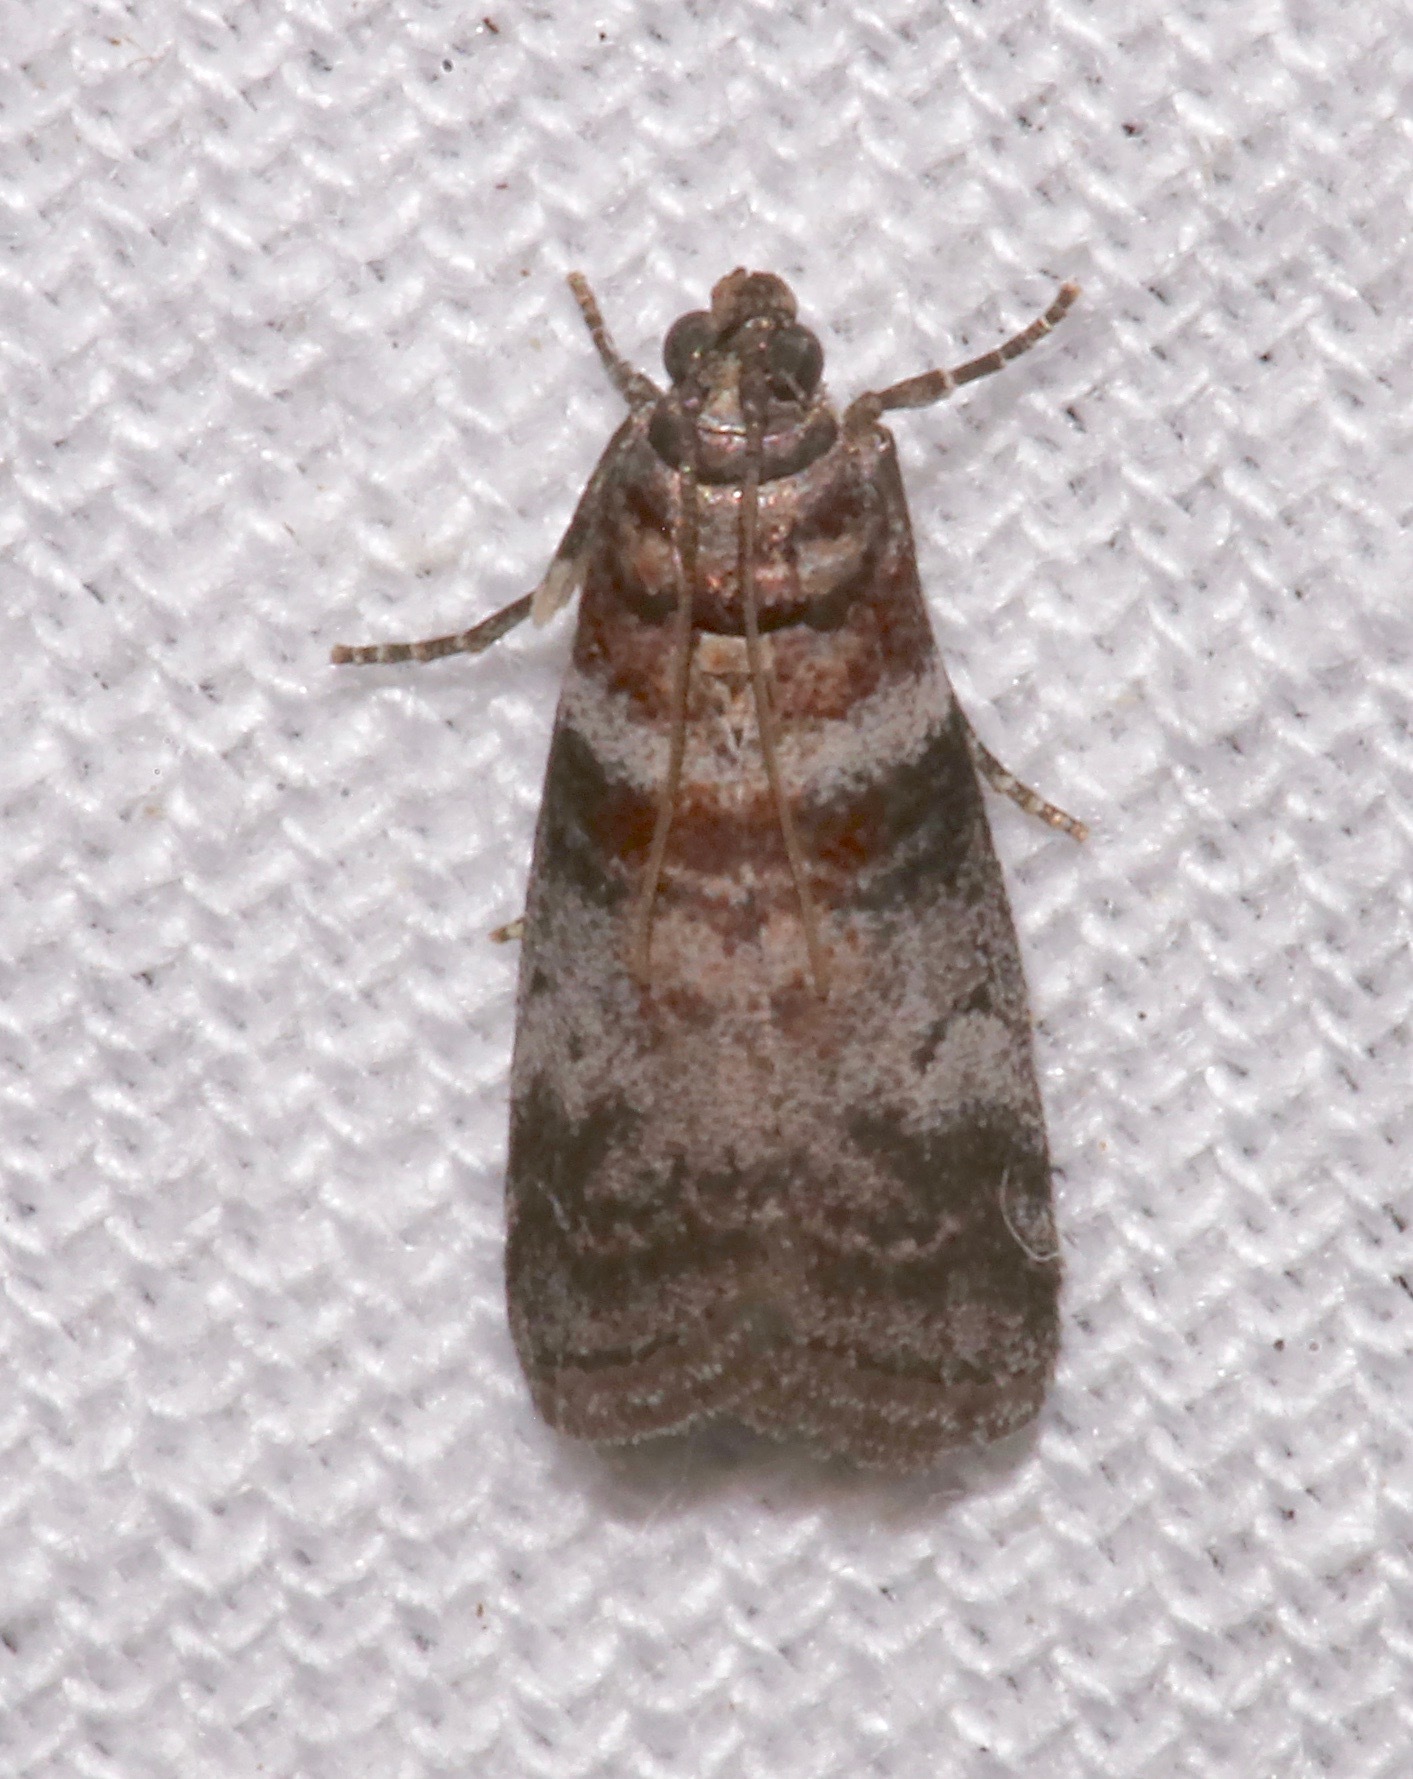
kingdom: Animalia
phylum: Arthropoda
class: Insecta
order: Lepidoptera
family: Pyralidae
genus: Sciota
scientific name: Sciota uvinella
